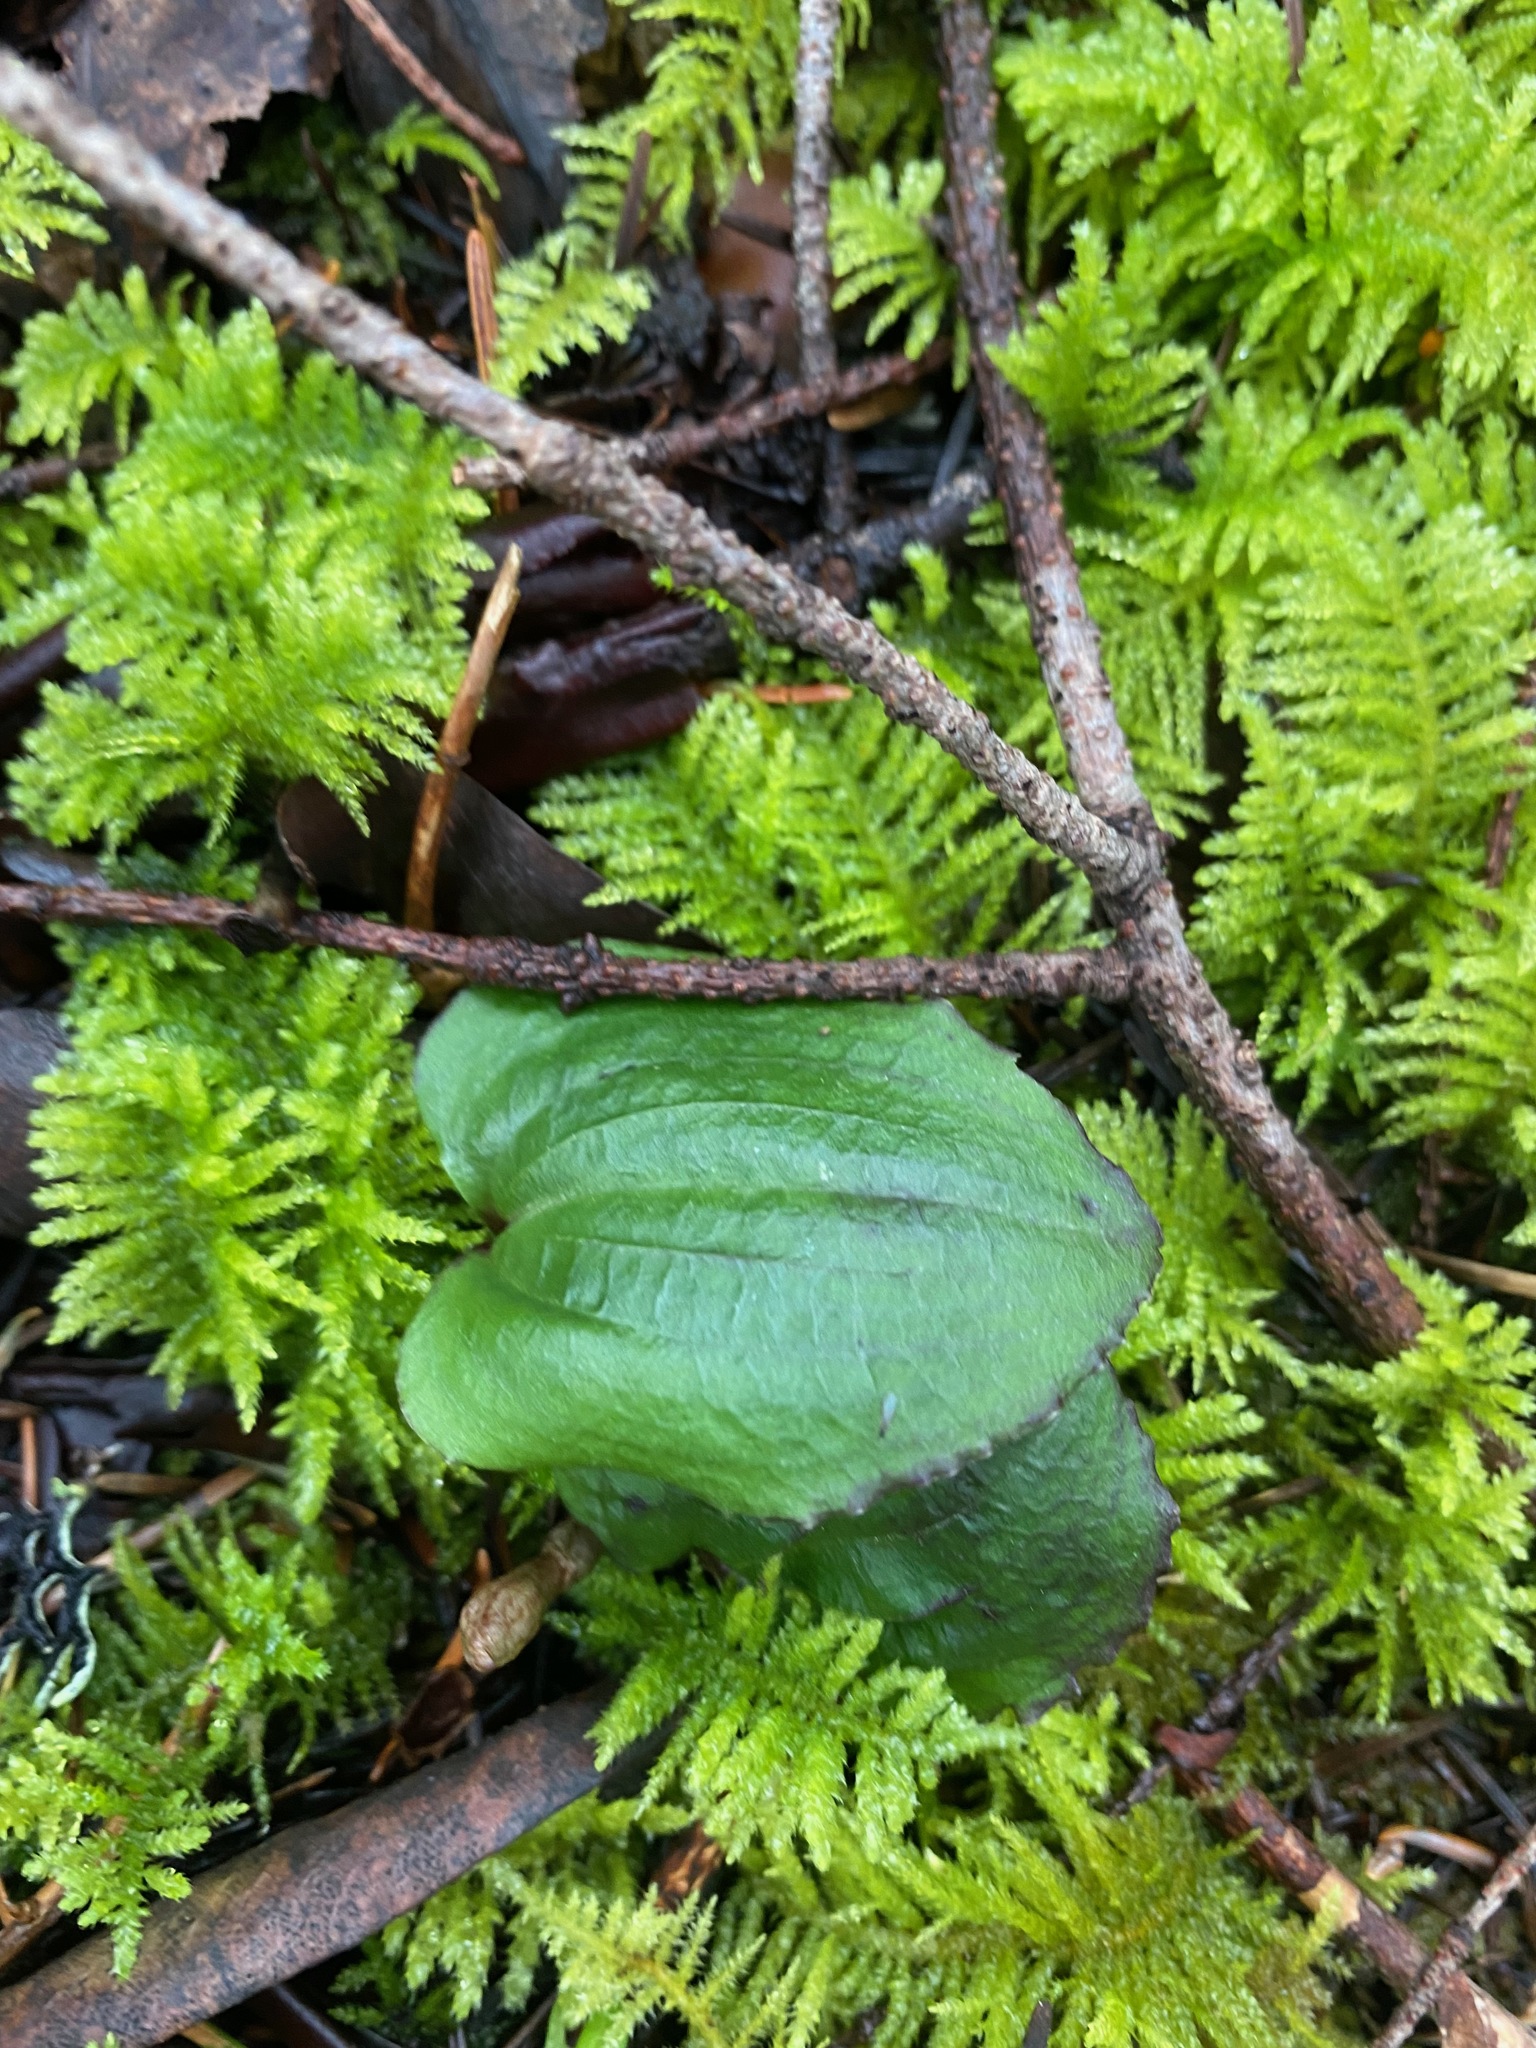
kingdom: Plantae
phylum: Tracheophyta
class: Liliopsida
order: Asparagales
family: Orchidaceae
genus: Calypso
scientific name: Calypso bulbosa
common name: Calypso
